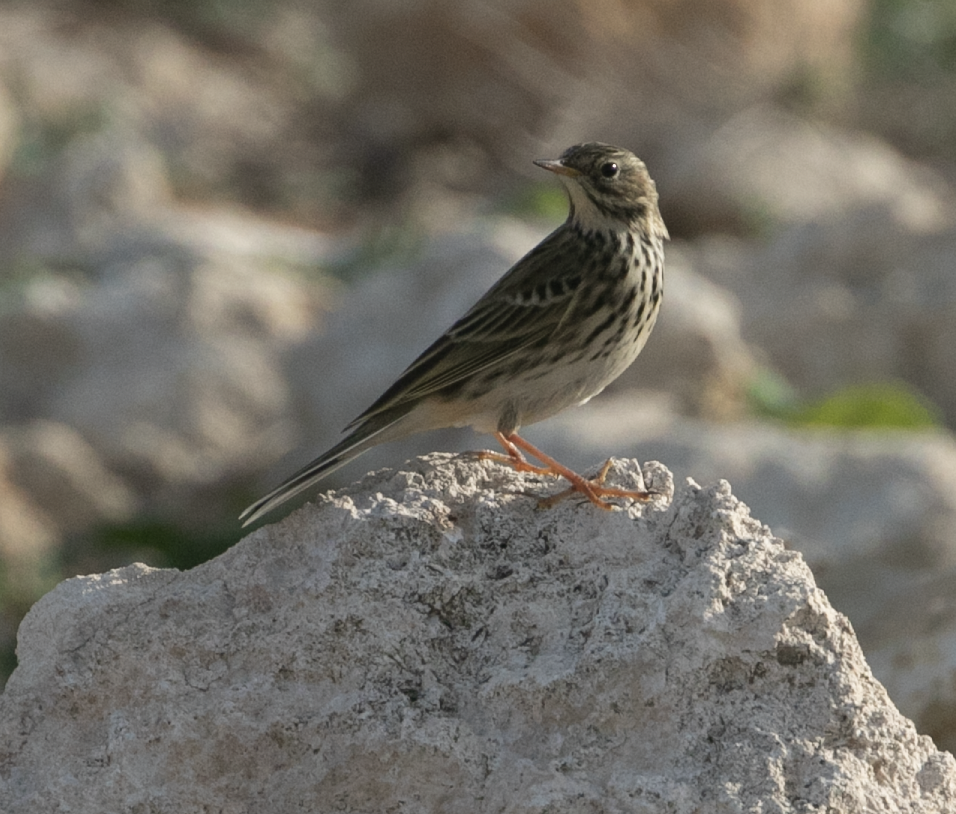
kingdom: Animalia
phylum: Chordata
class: Aves
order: Passeriformes
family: Motacillidae
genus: Anthus
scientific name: Anthus pratensis
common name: Meadow pipit
